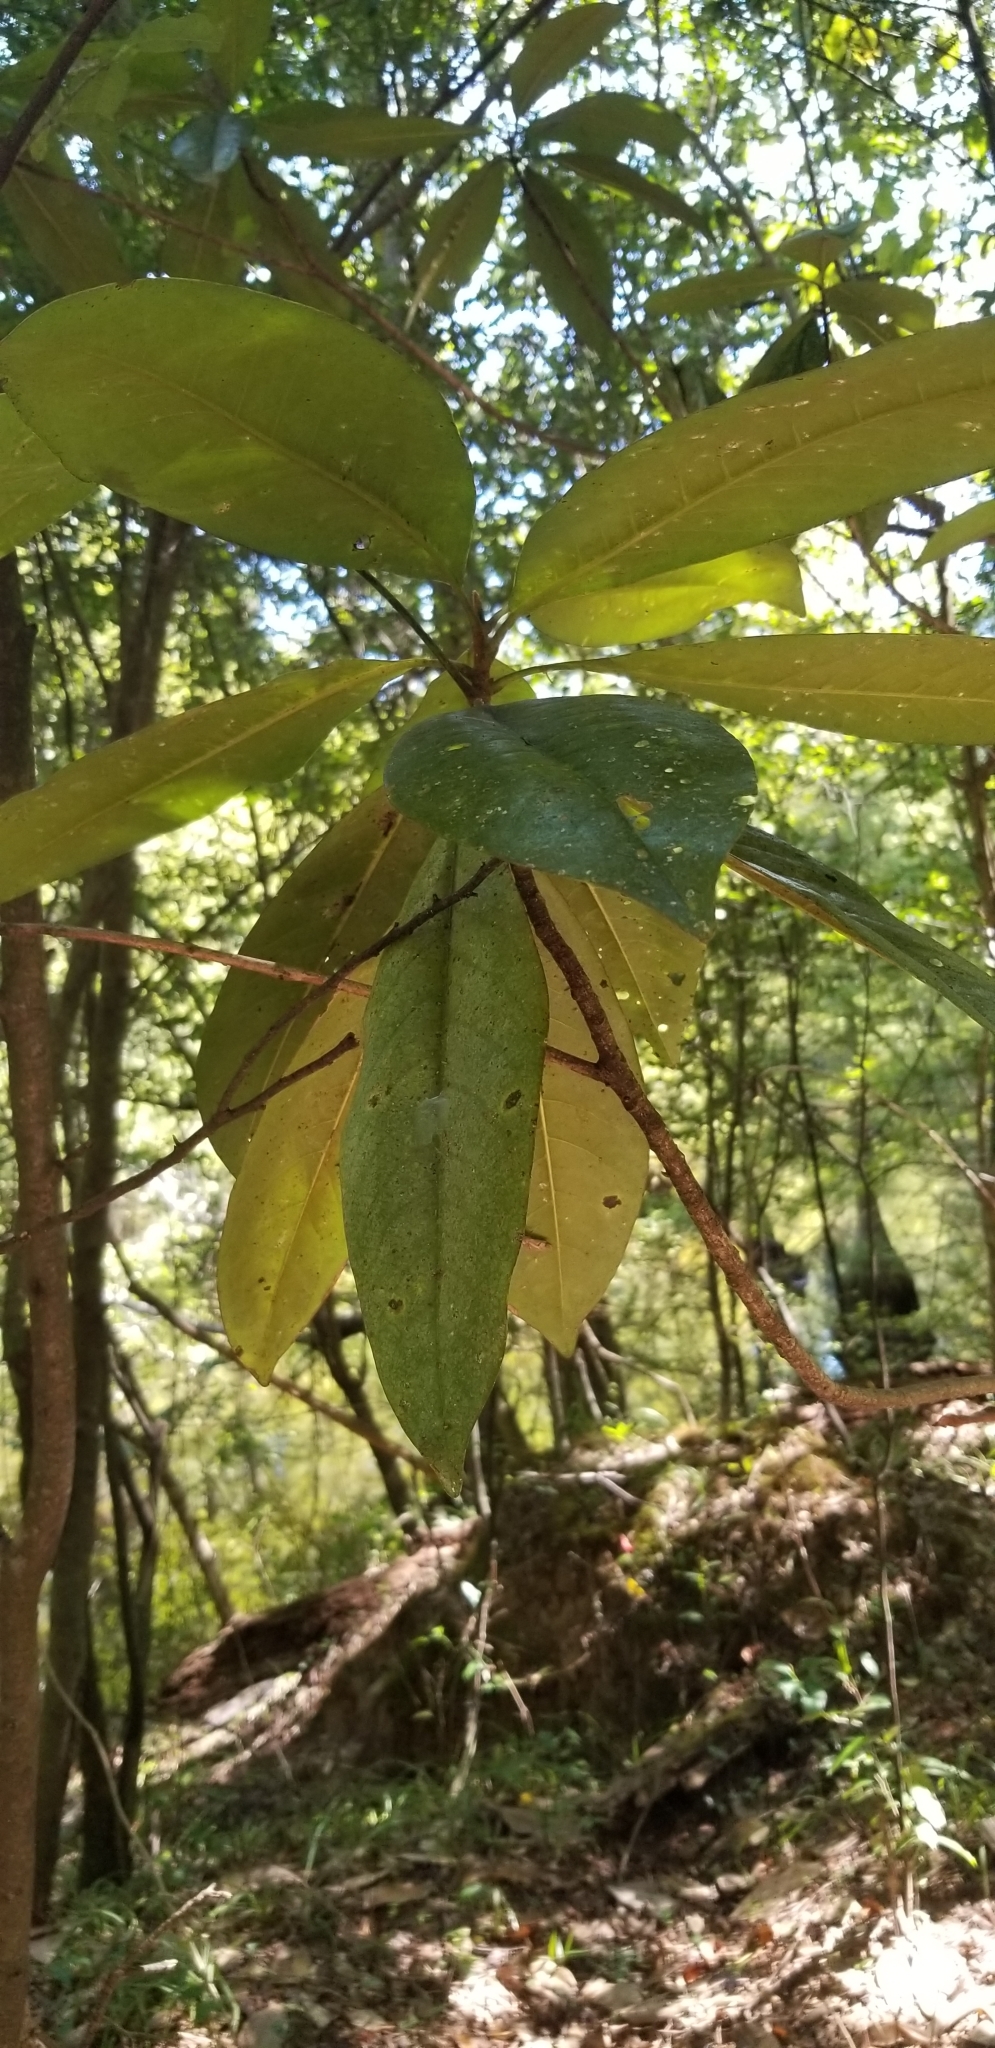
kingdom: Plantae
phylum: Tracheophyta
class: Magnoliopsida
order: Magnoliales
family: Magnoliaceae
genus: Magnolia
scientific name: Magnolia grandiflora
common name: Southern magnolia
